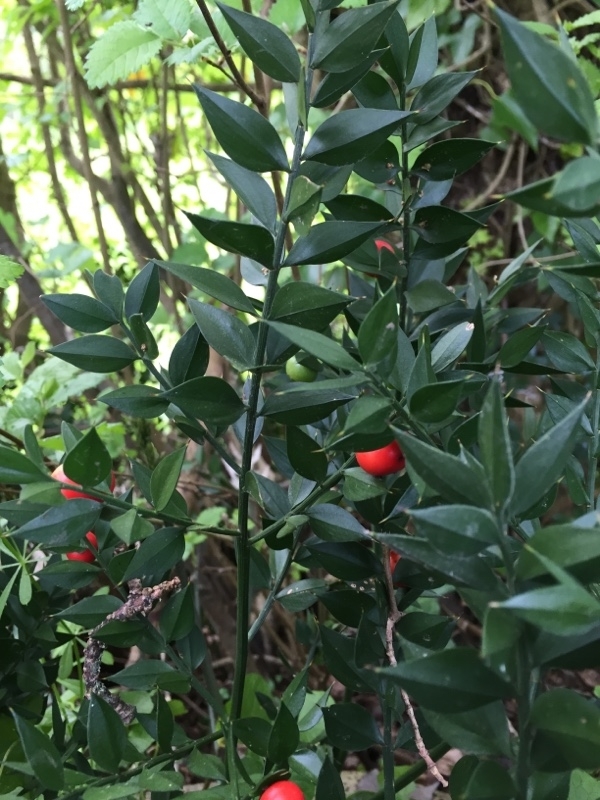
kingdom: Plantae
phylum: Tracheophyta
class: Liliopsida
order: Asparagales
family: Asparagaceae
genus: Ruscus
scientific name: Ruscus aculeatus
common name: Butcher's-broom
